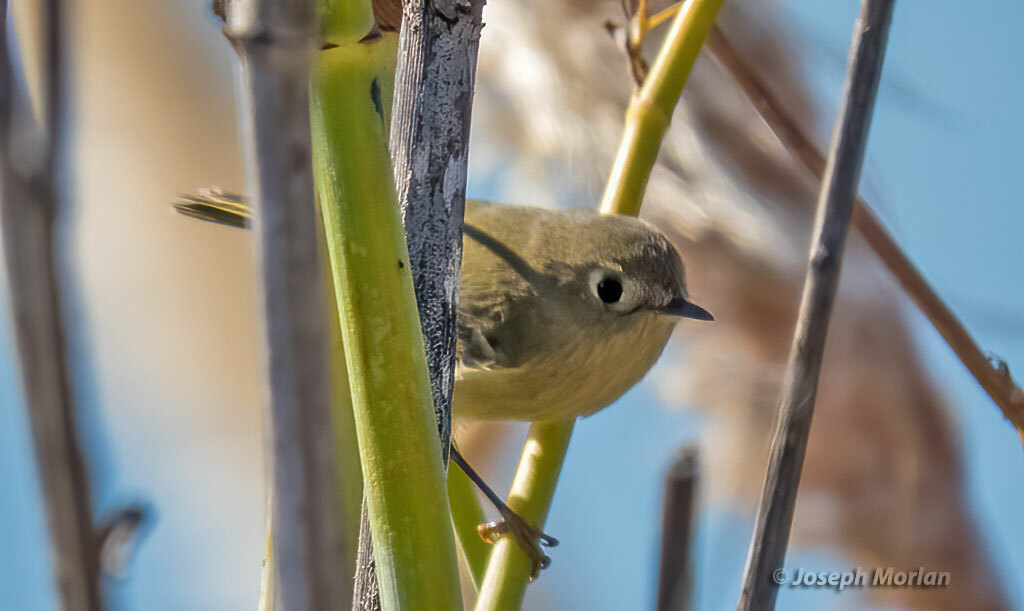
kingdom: Animalia
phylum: Chordata
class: Aves
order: Passeriformes
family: Regulidae
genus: Regulus
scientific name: Regulus calendula
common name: Ruby-crowned kinglet
